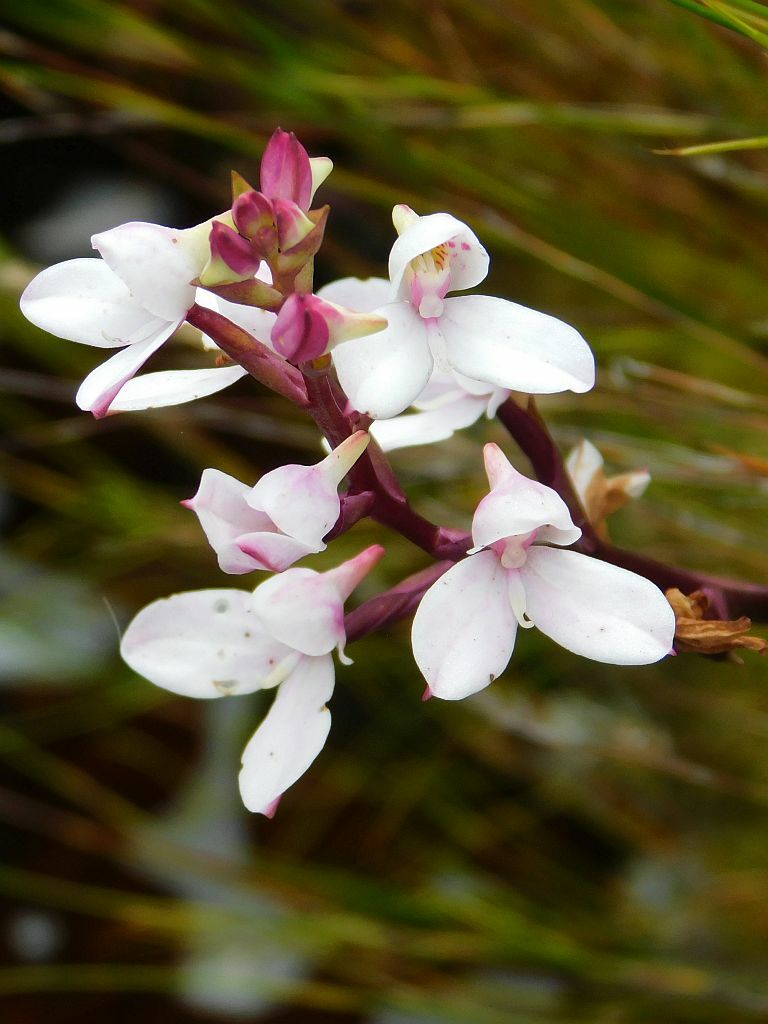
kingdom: Plantae
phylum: Tracheophyta
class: Liliopsida
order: Asparagales
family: Orchidaceae
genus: Disa
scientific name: Disa tripetaloides
